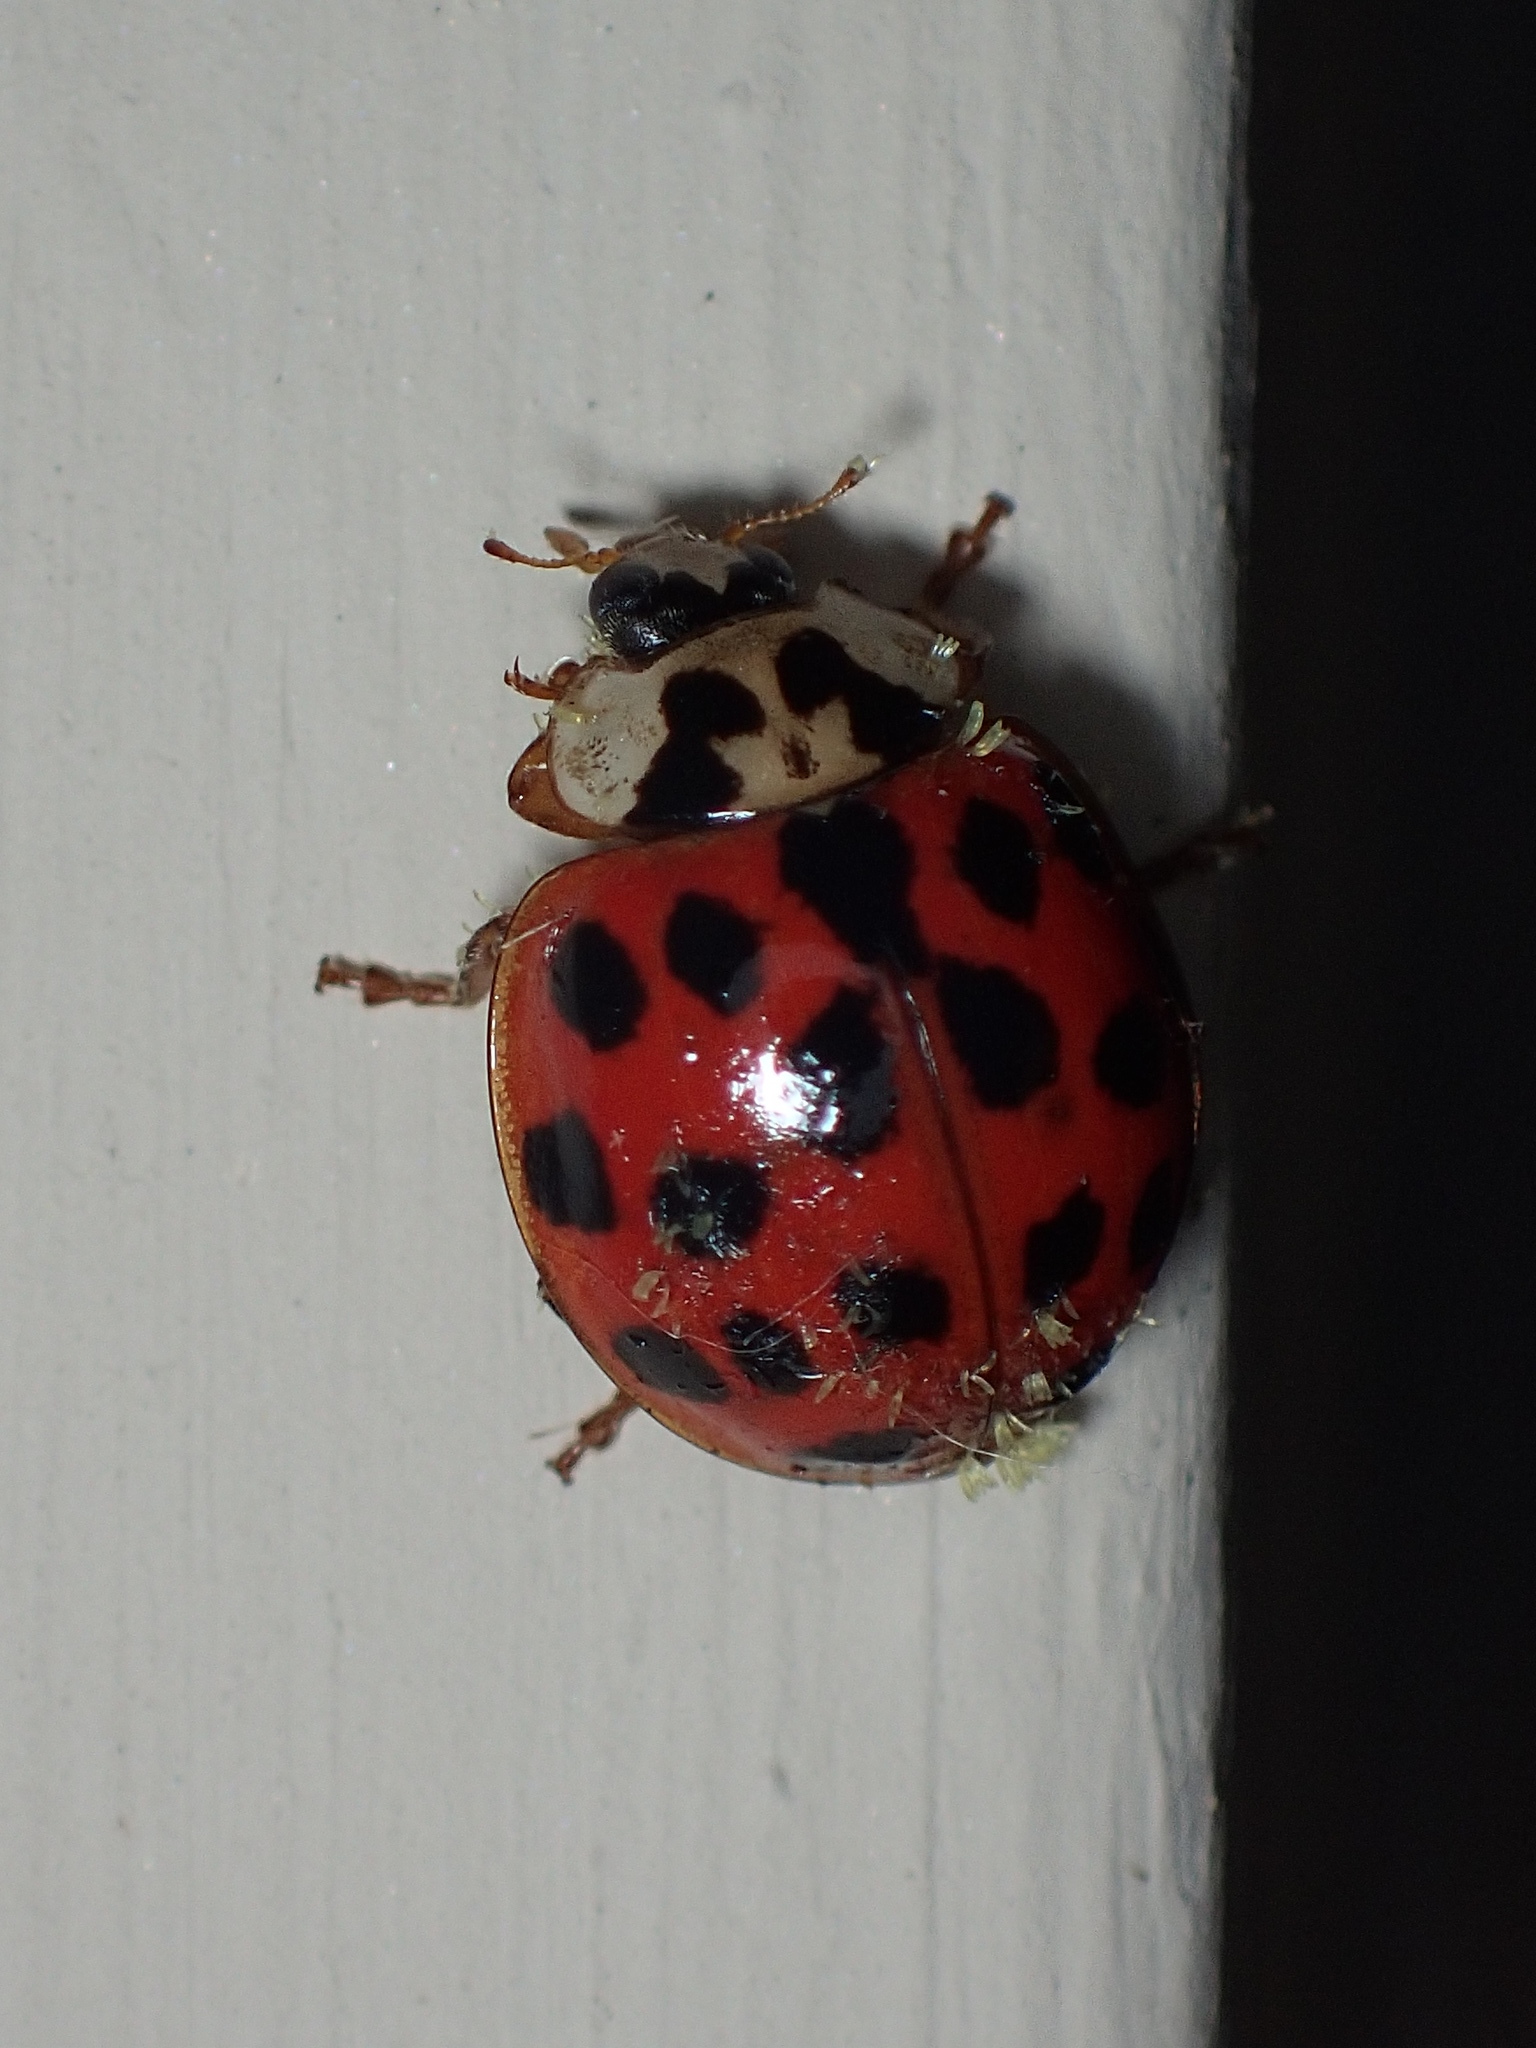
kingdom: Animalia
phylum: Arthropoda
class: Insecta
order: Coleoptera
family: Coccinellidae
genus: Harmonia
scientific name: Harmonia axyridis
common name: Harlequin ladybird
